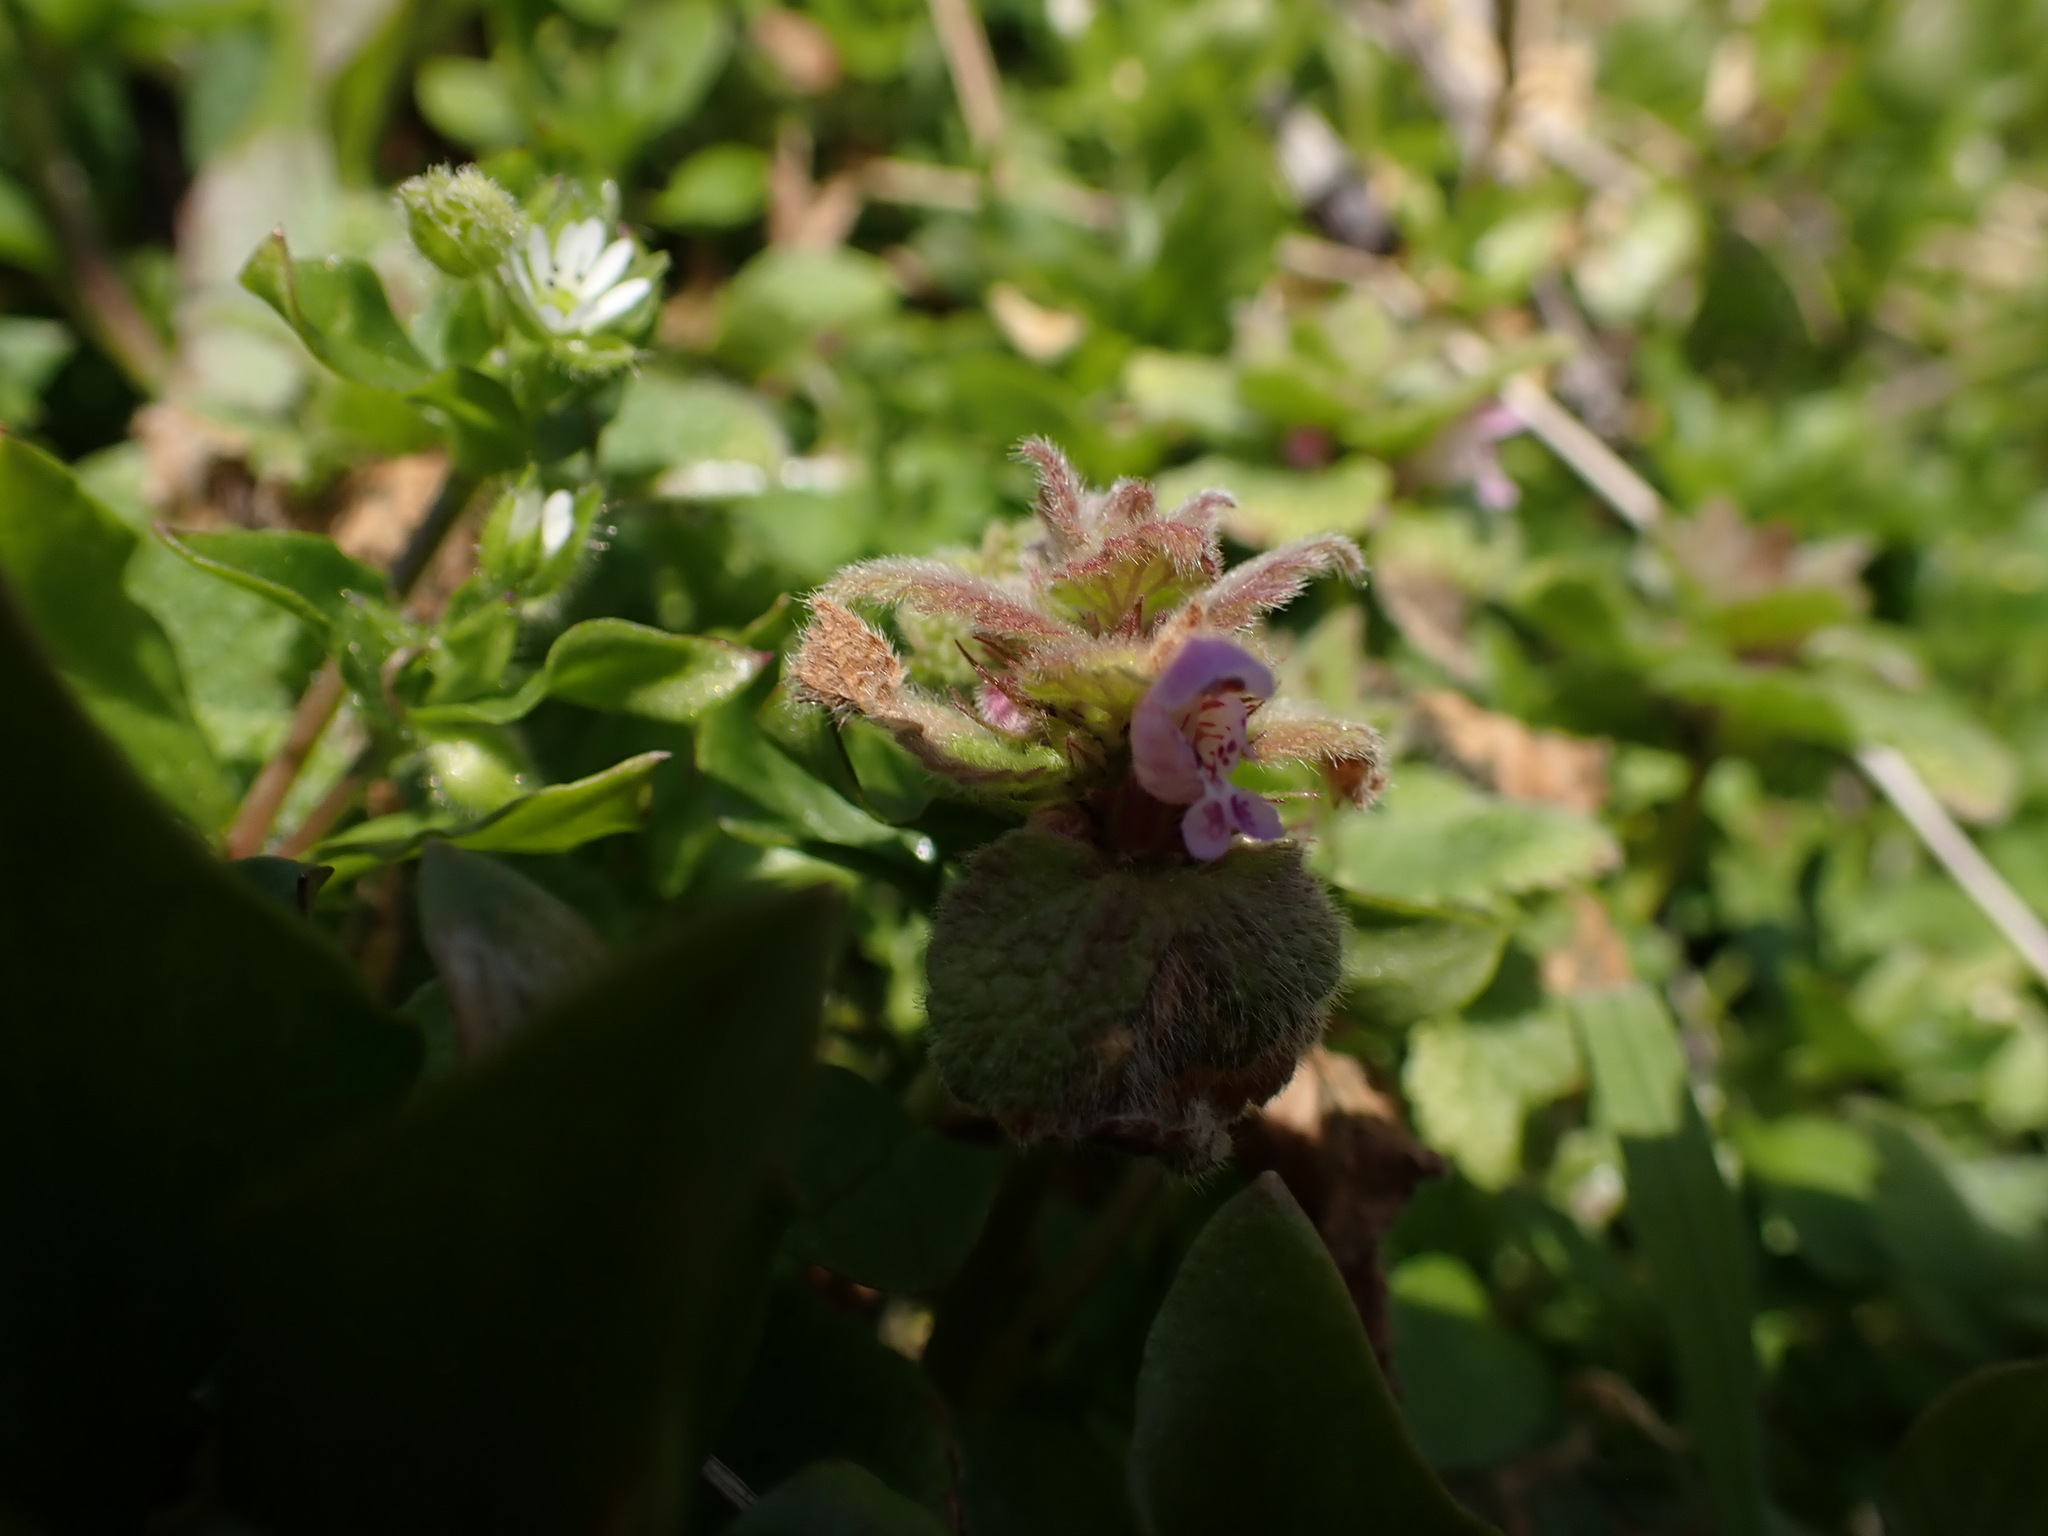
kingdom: Plantae
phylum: Tracheophyta
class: Magnoliopsida
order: Lamiales
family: Lamiaceae
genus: Lamium
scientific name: Lamium purpureum
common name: Red dead-nettle
